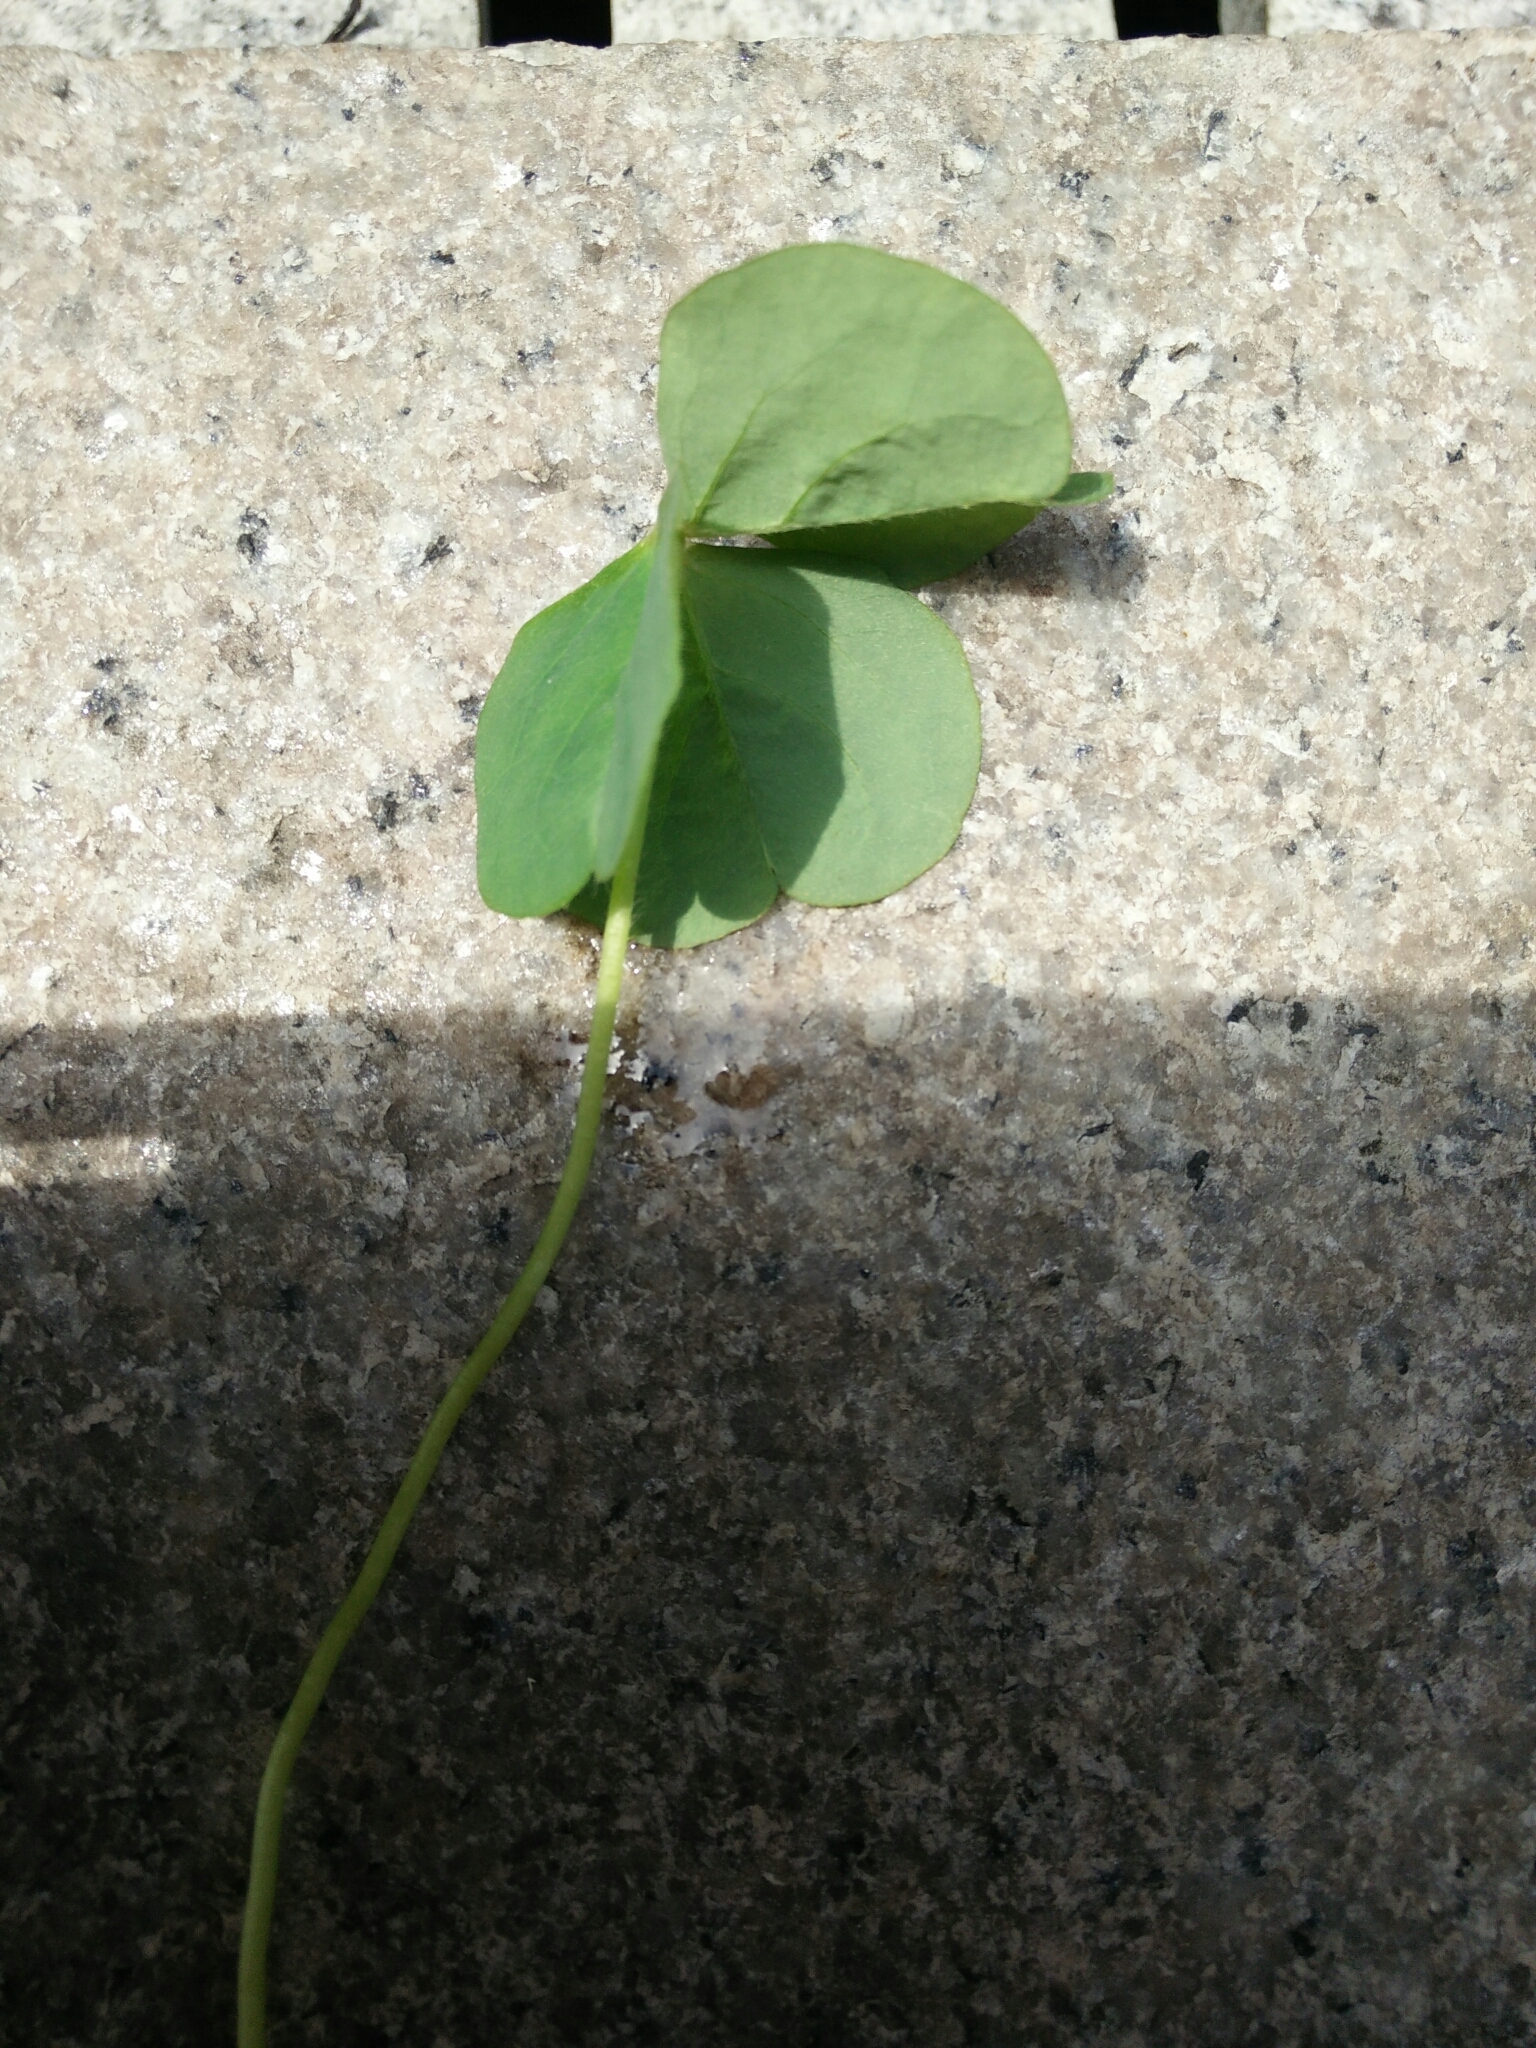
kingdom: Plantae
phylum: Tracheophyta
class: Magnoliopsida
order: Oxalidales
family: Oxalidaceae
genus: Oxalis
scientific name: Oxalis debilis
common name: Large-flowered pink-sorrel
